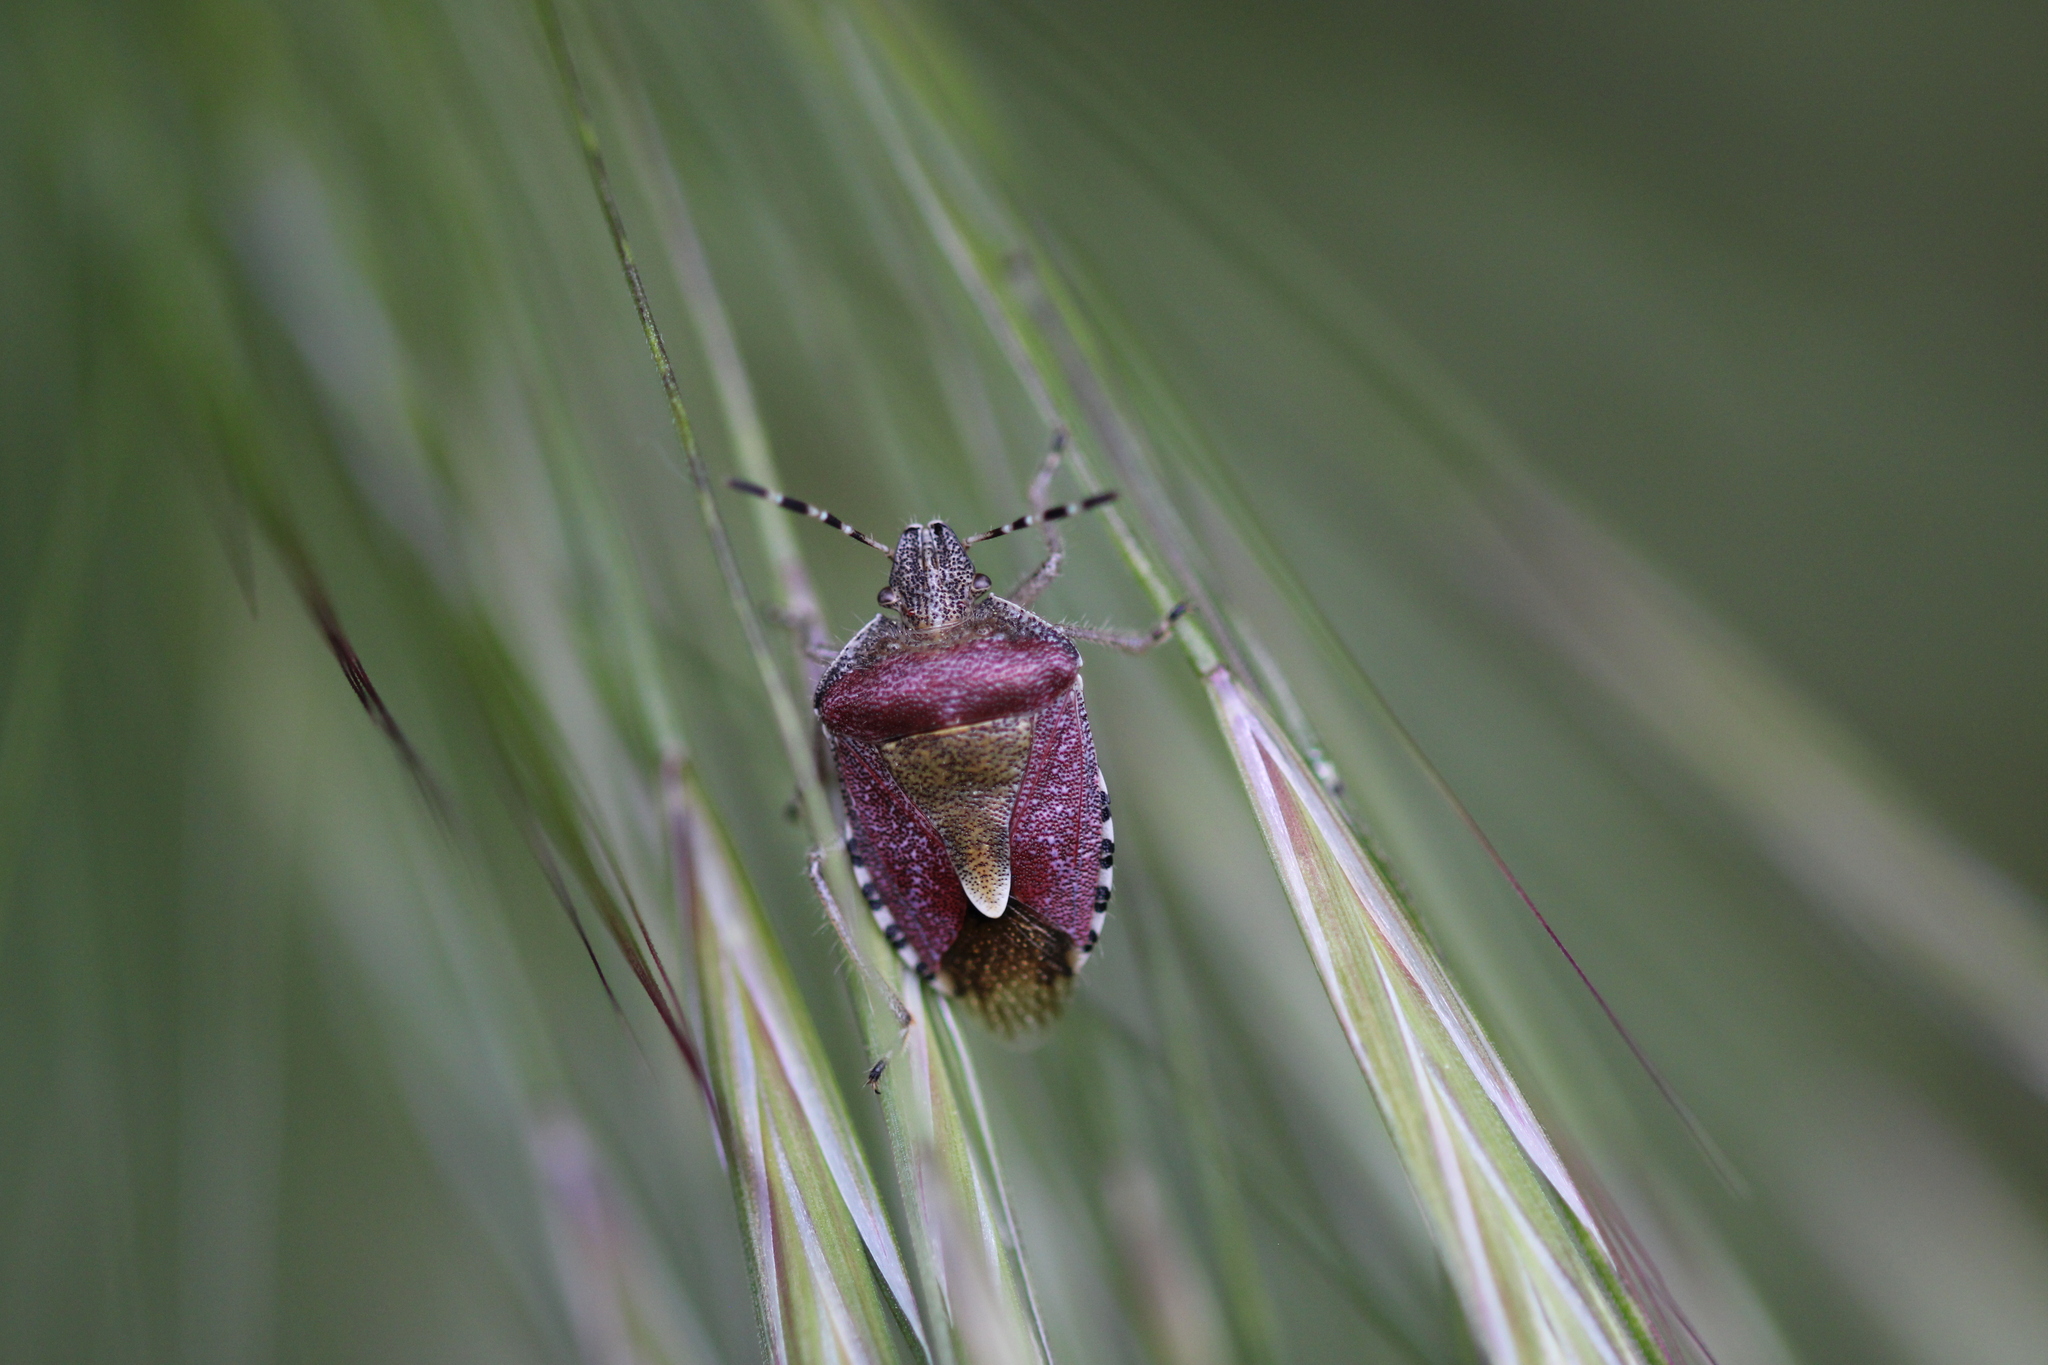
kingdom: Animalia
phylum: Arthropoda
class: Insecta
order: Hemiptera
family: Pentatomidae
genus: Dolycoris
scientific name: Dolycoris baccarum
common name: Sloe bug
